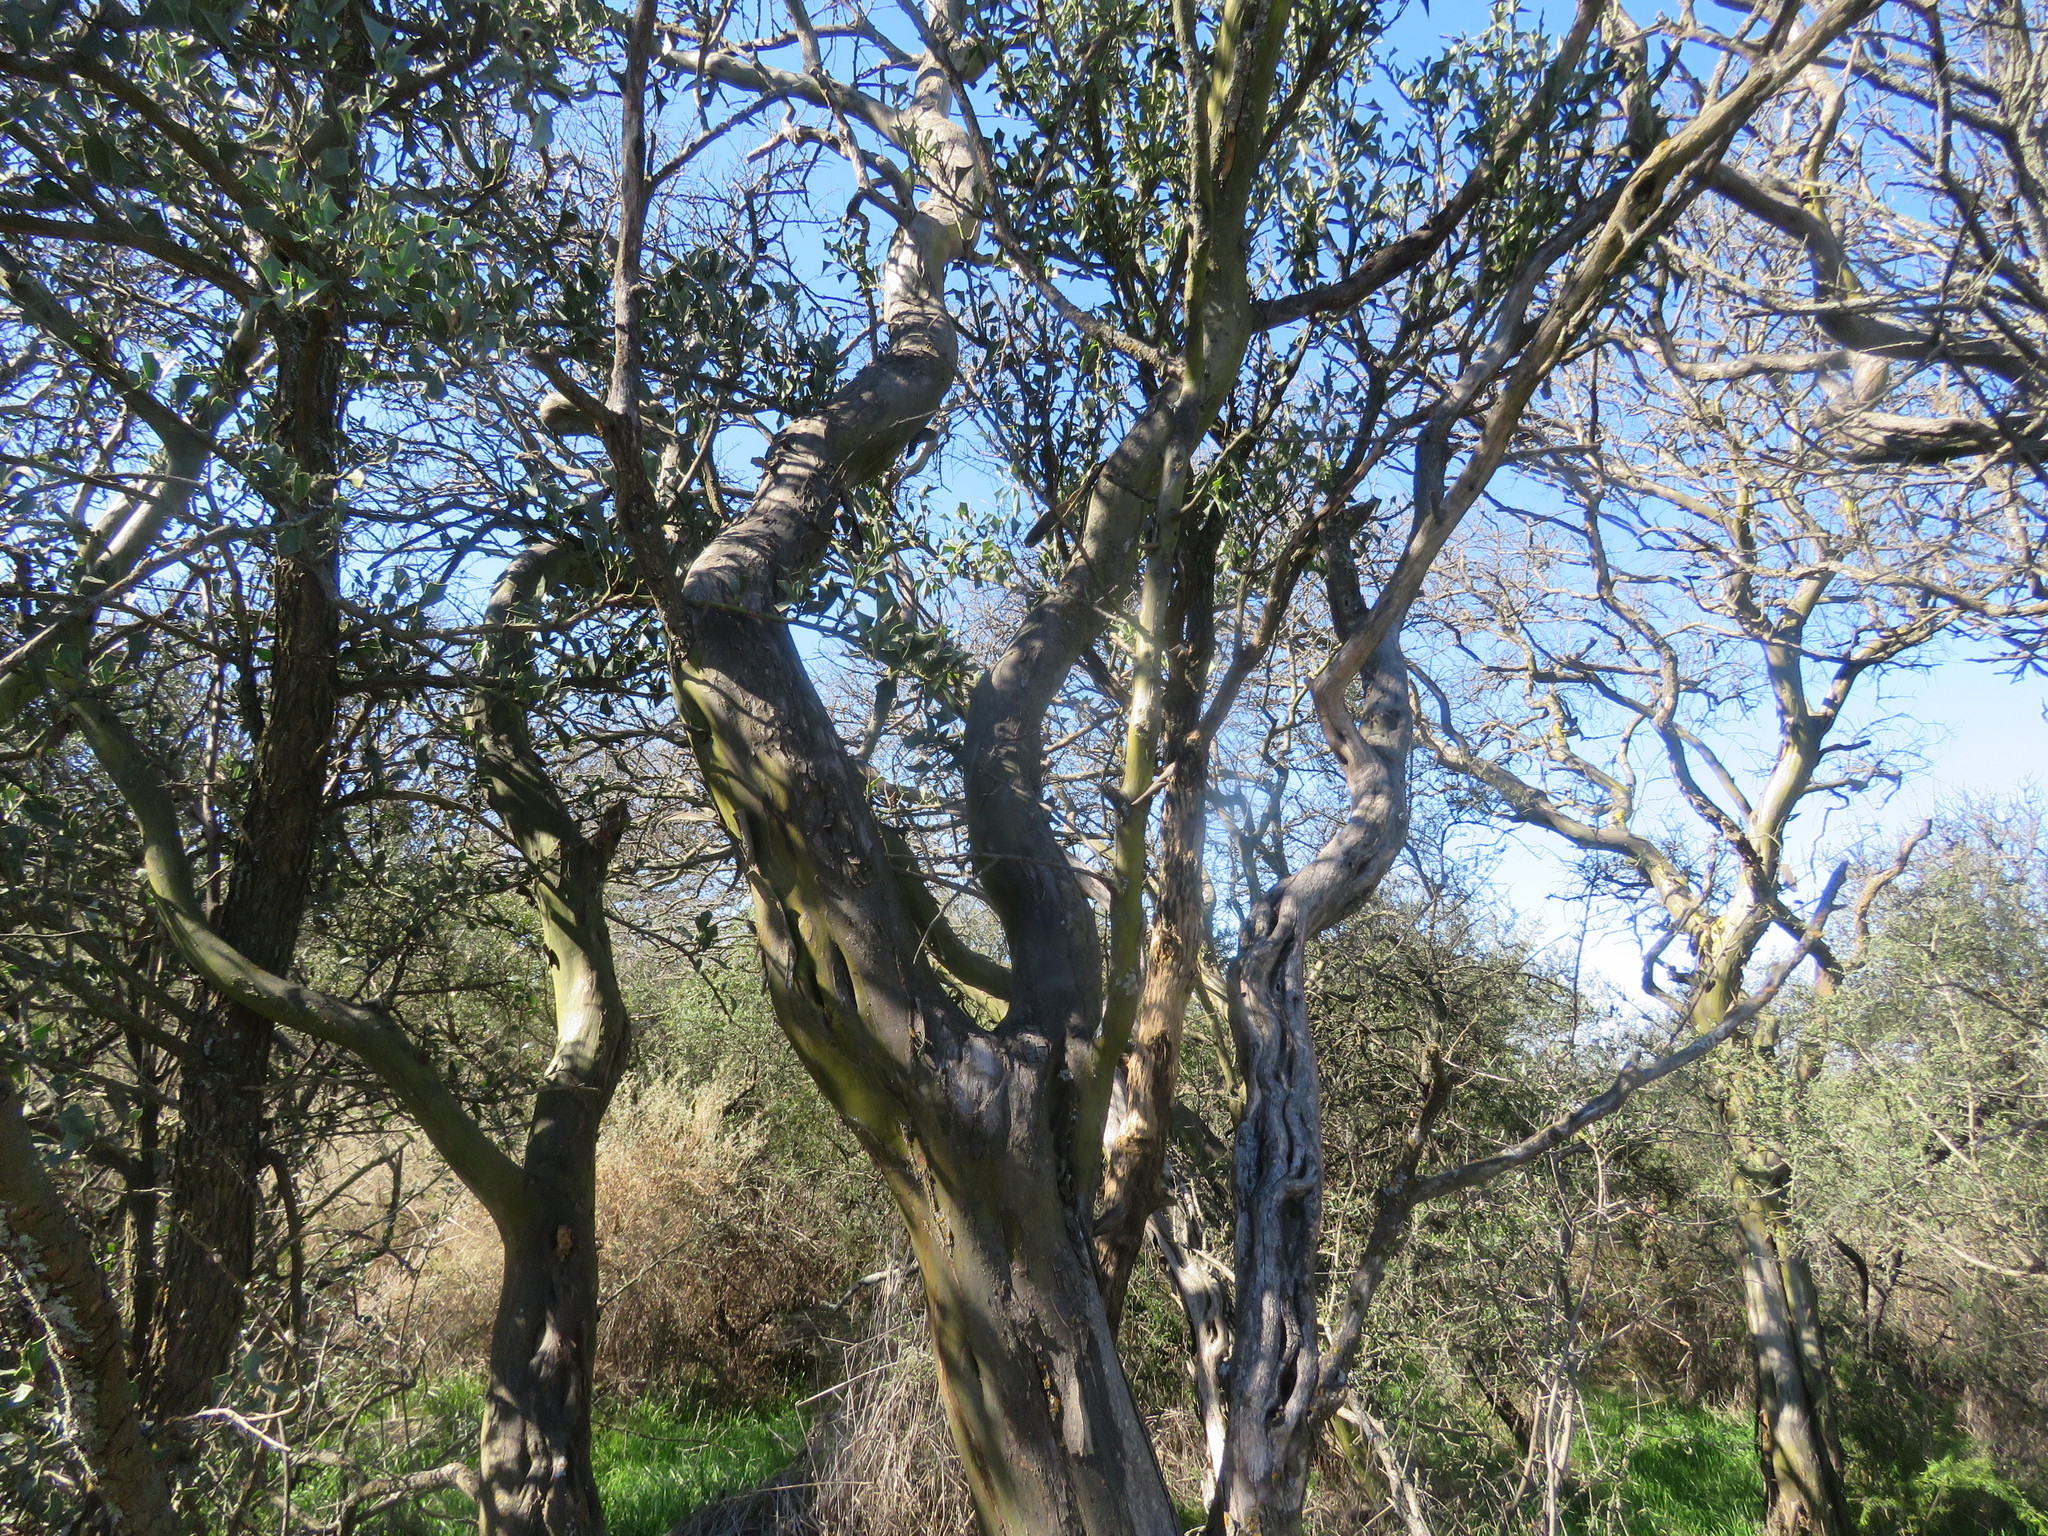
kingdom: Plantae
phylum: Tracheophyta
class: Magnoliopsida
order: Fabales
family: Fabaceae
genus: Geoffroea
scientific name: Geoffroea decorticans
